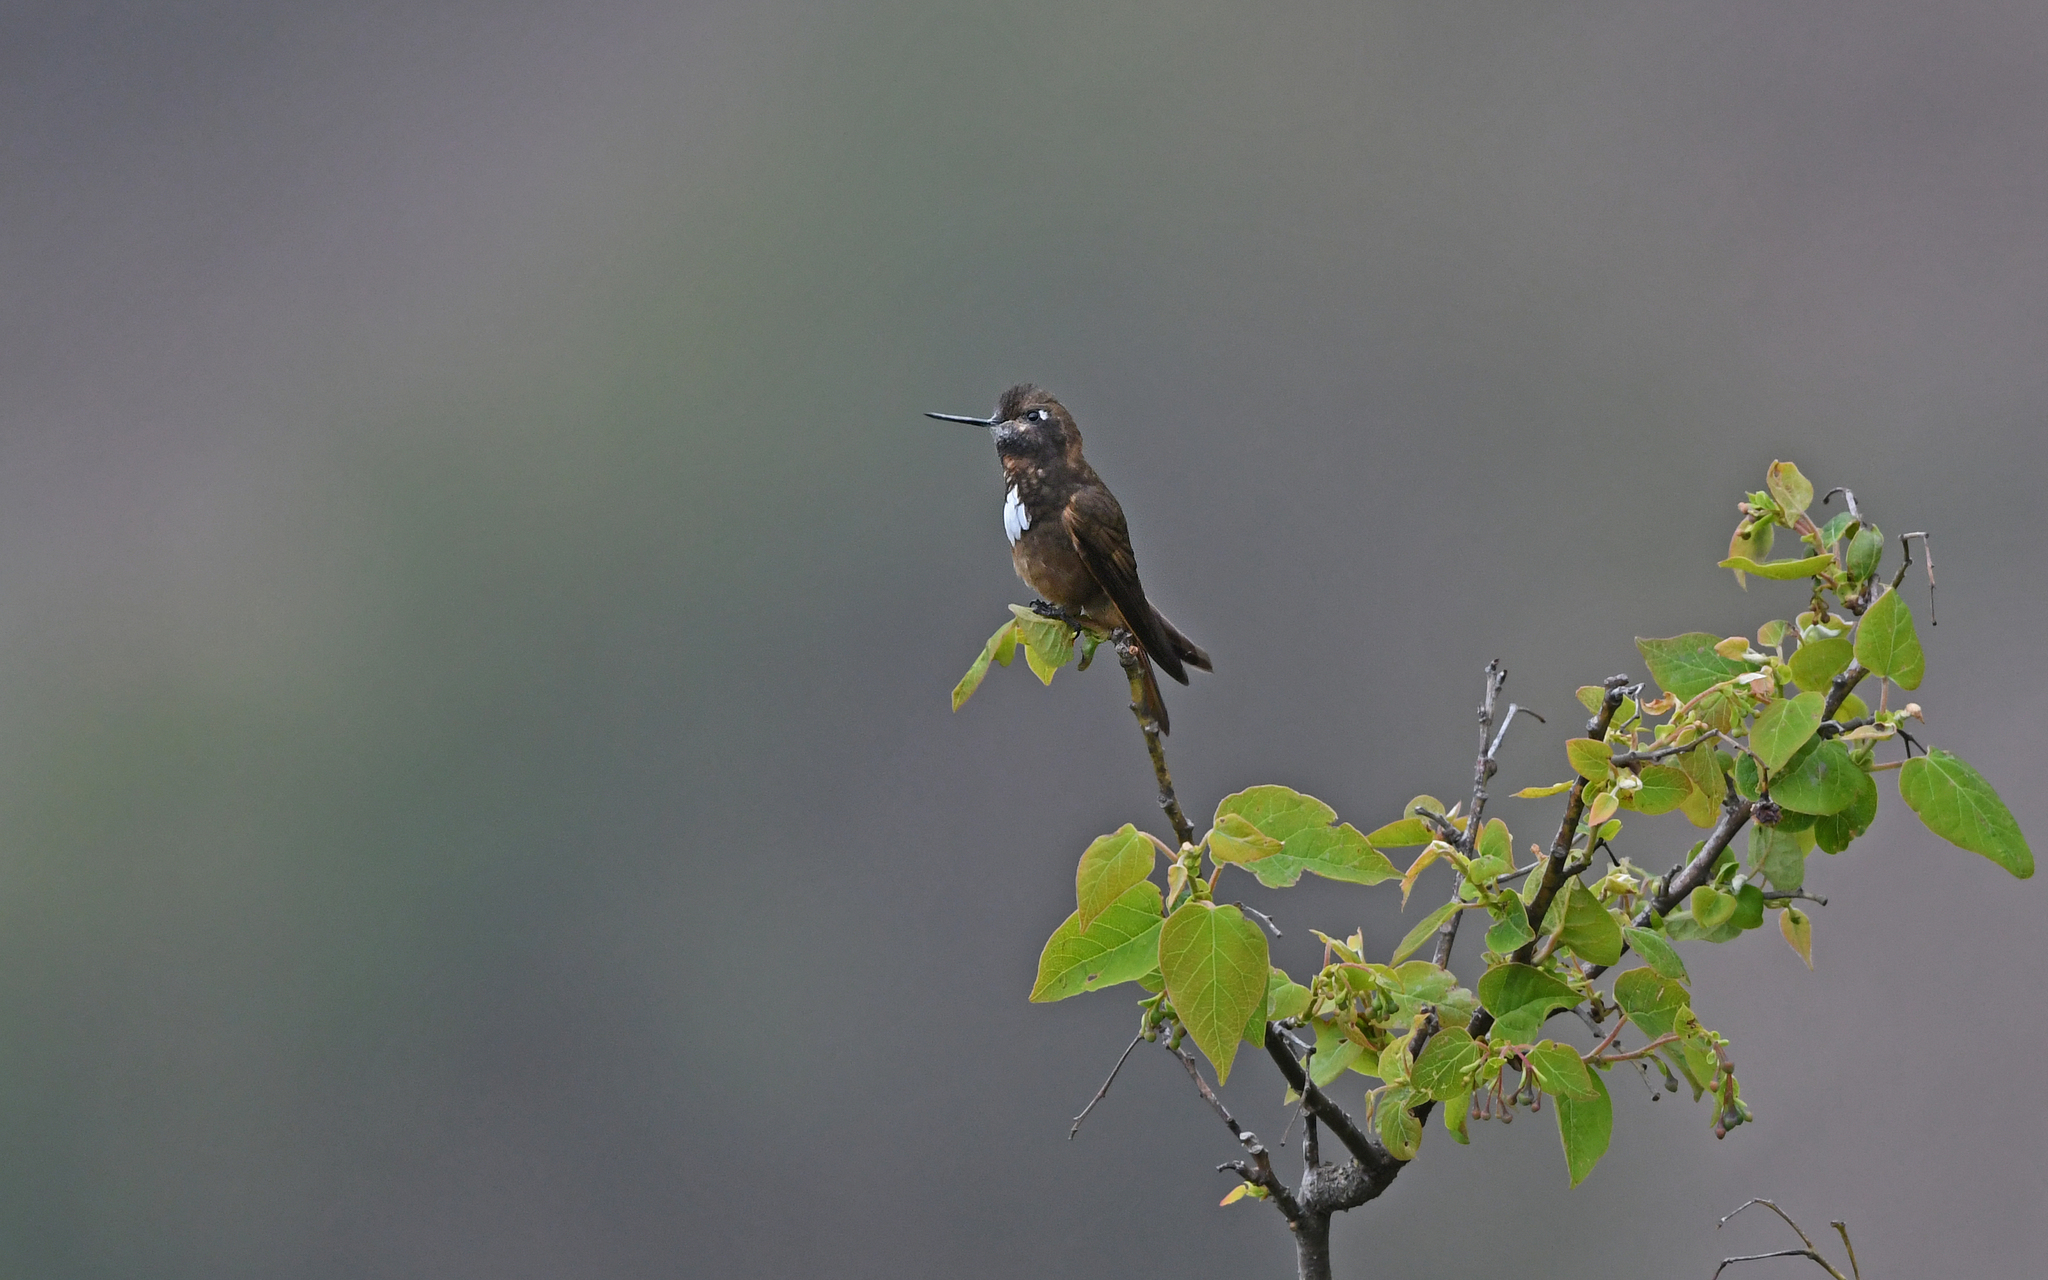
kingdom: Animalia
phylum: Chordata
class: Aves
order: Apodiformes
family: Trochilidae
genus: Aglaeactis
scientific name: Aglaeactis castelnaudii
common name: White-tufted sunbeam
